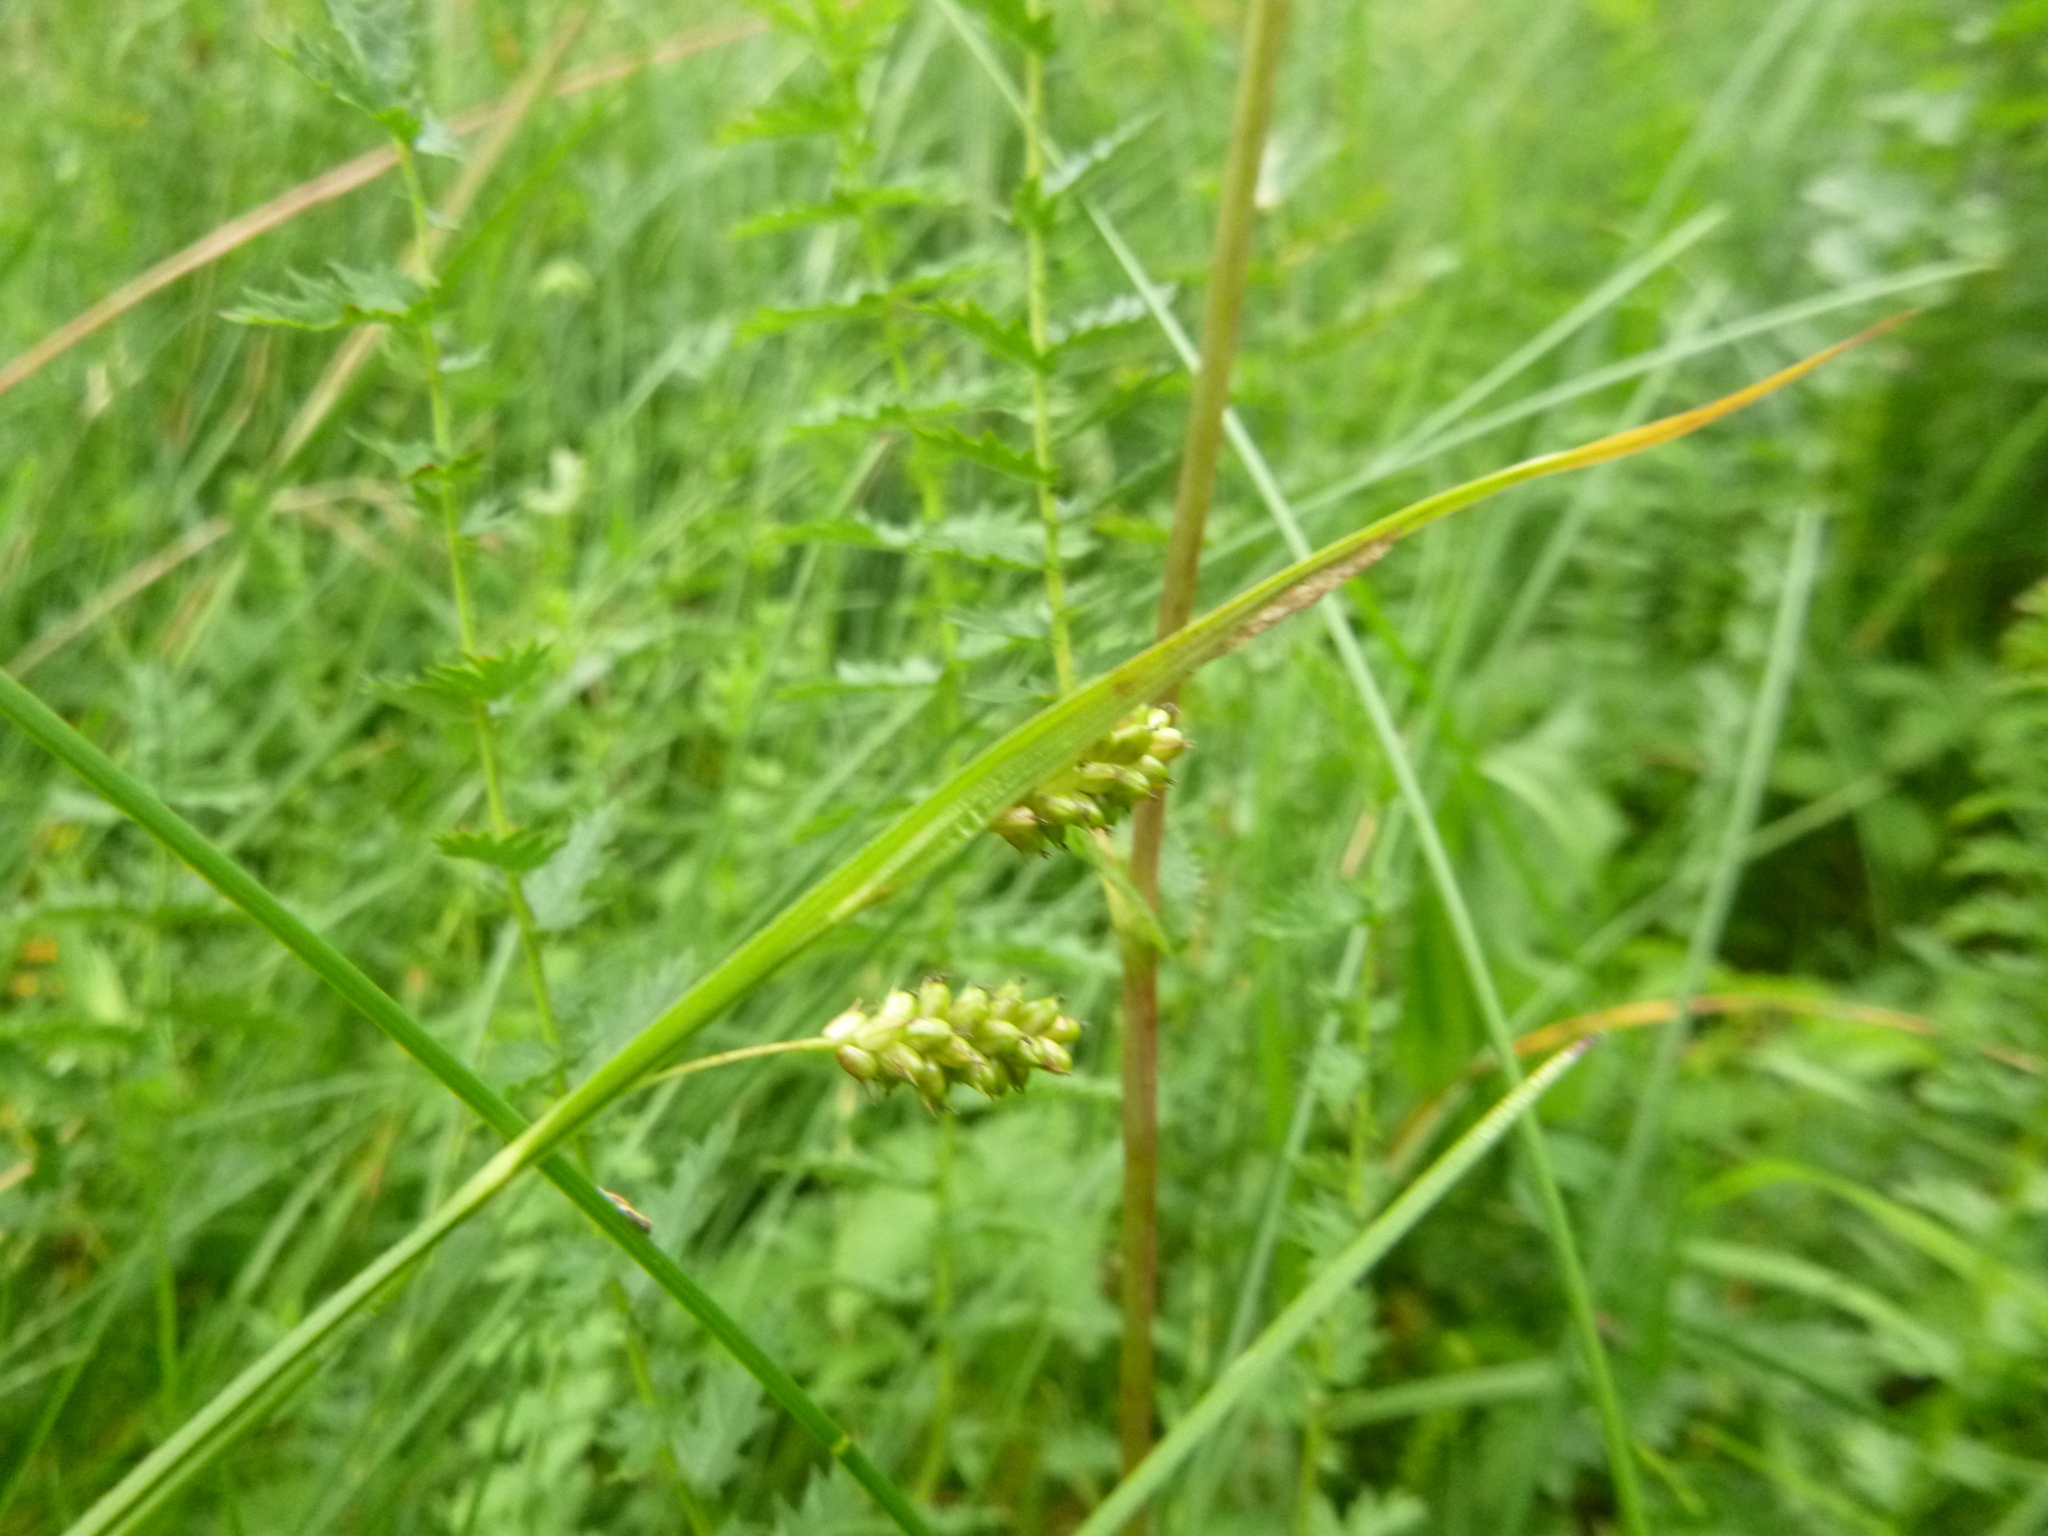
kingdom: Plantae
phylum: Tracheophyta
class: Liliopsida
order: Poales
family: Cyperaceae
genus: Carex
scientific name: Carex pallescens
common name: Pale sedge
